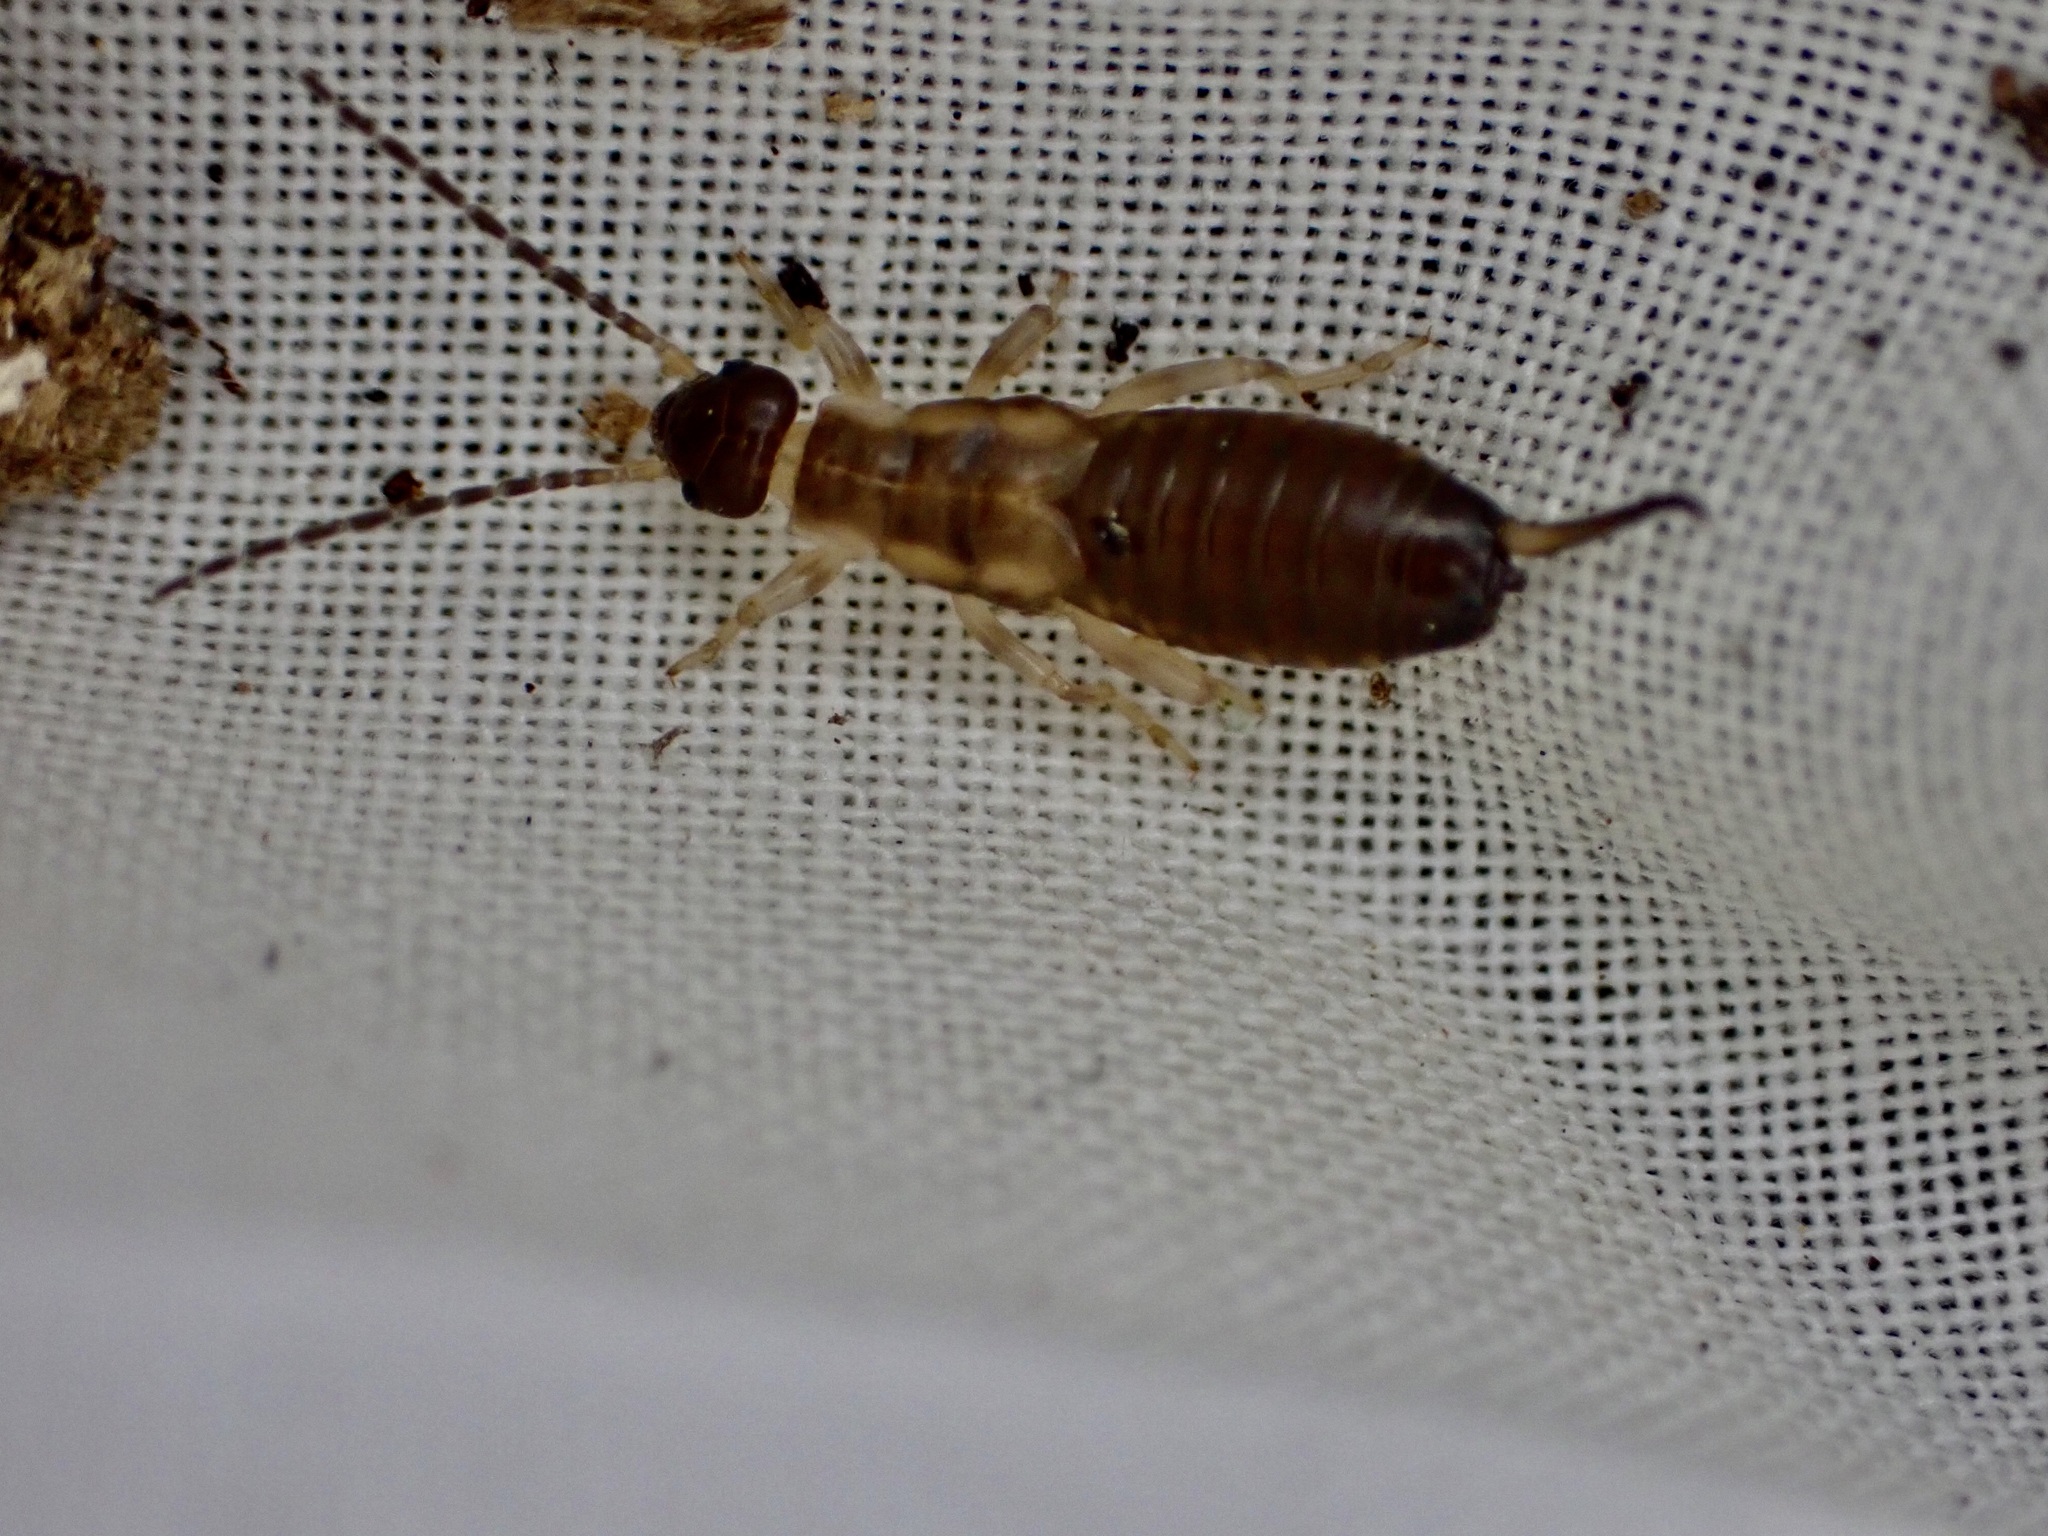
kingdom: Animalia
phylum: Arthropoda
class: Insecta
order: Dermaptera
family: Forficulidae
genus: Forficula
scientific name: Forficula
